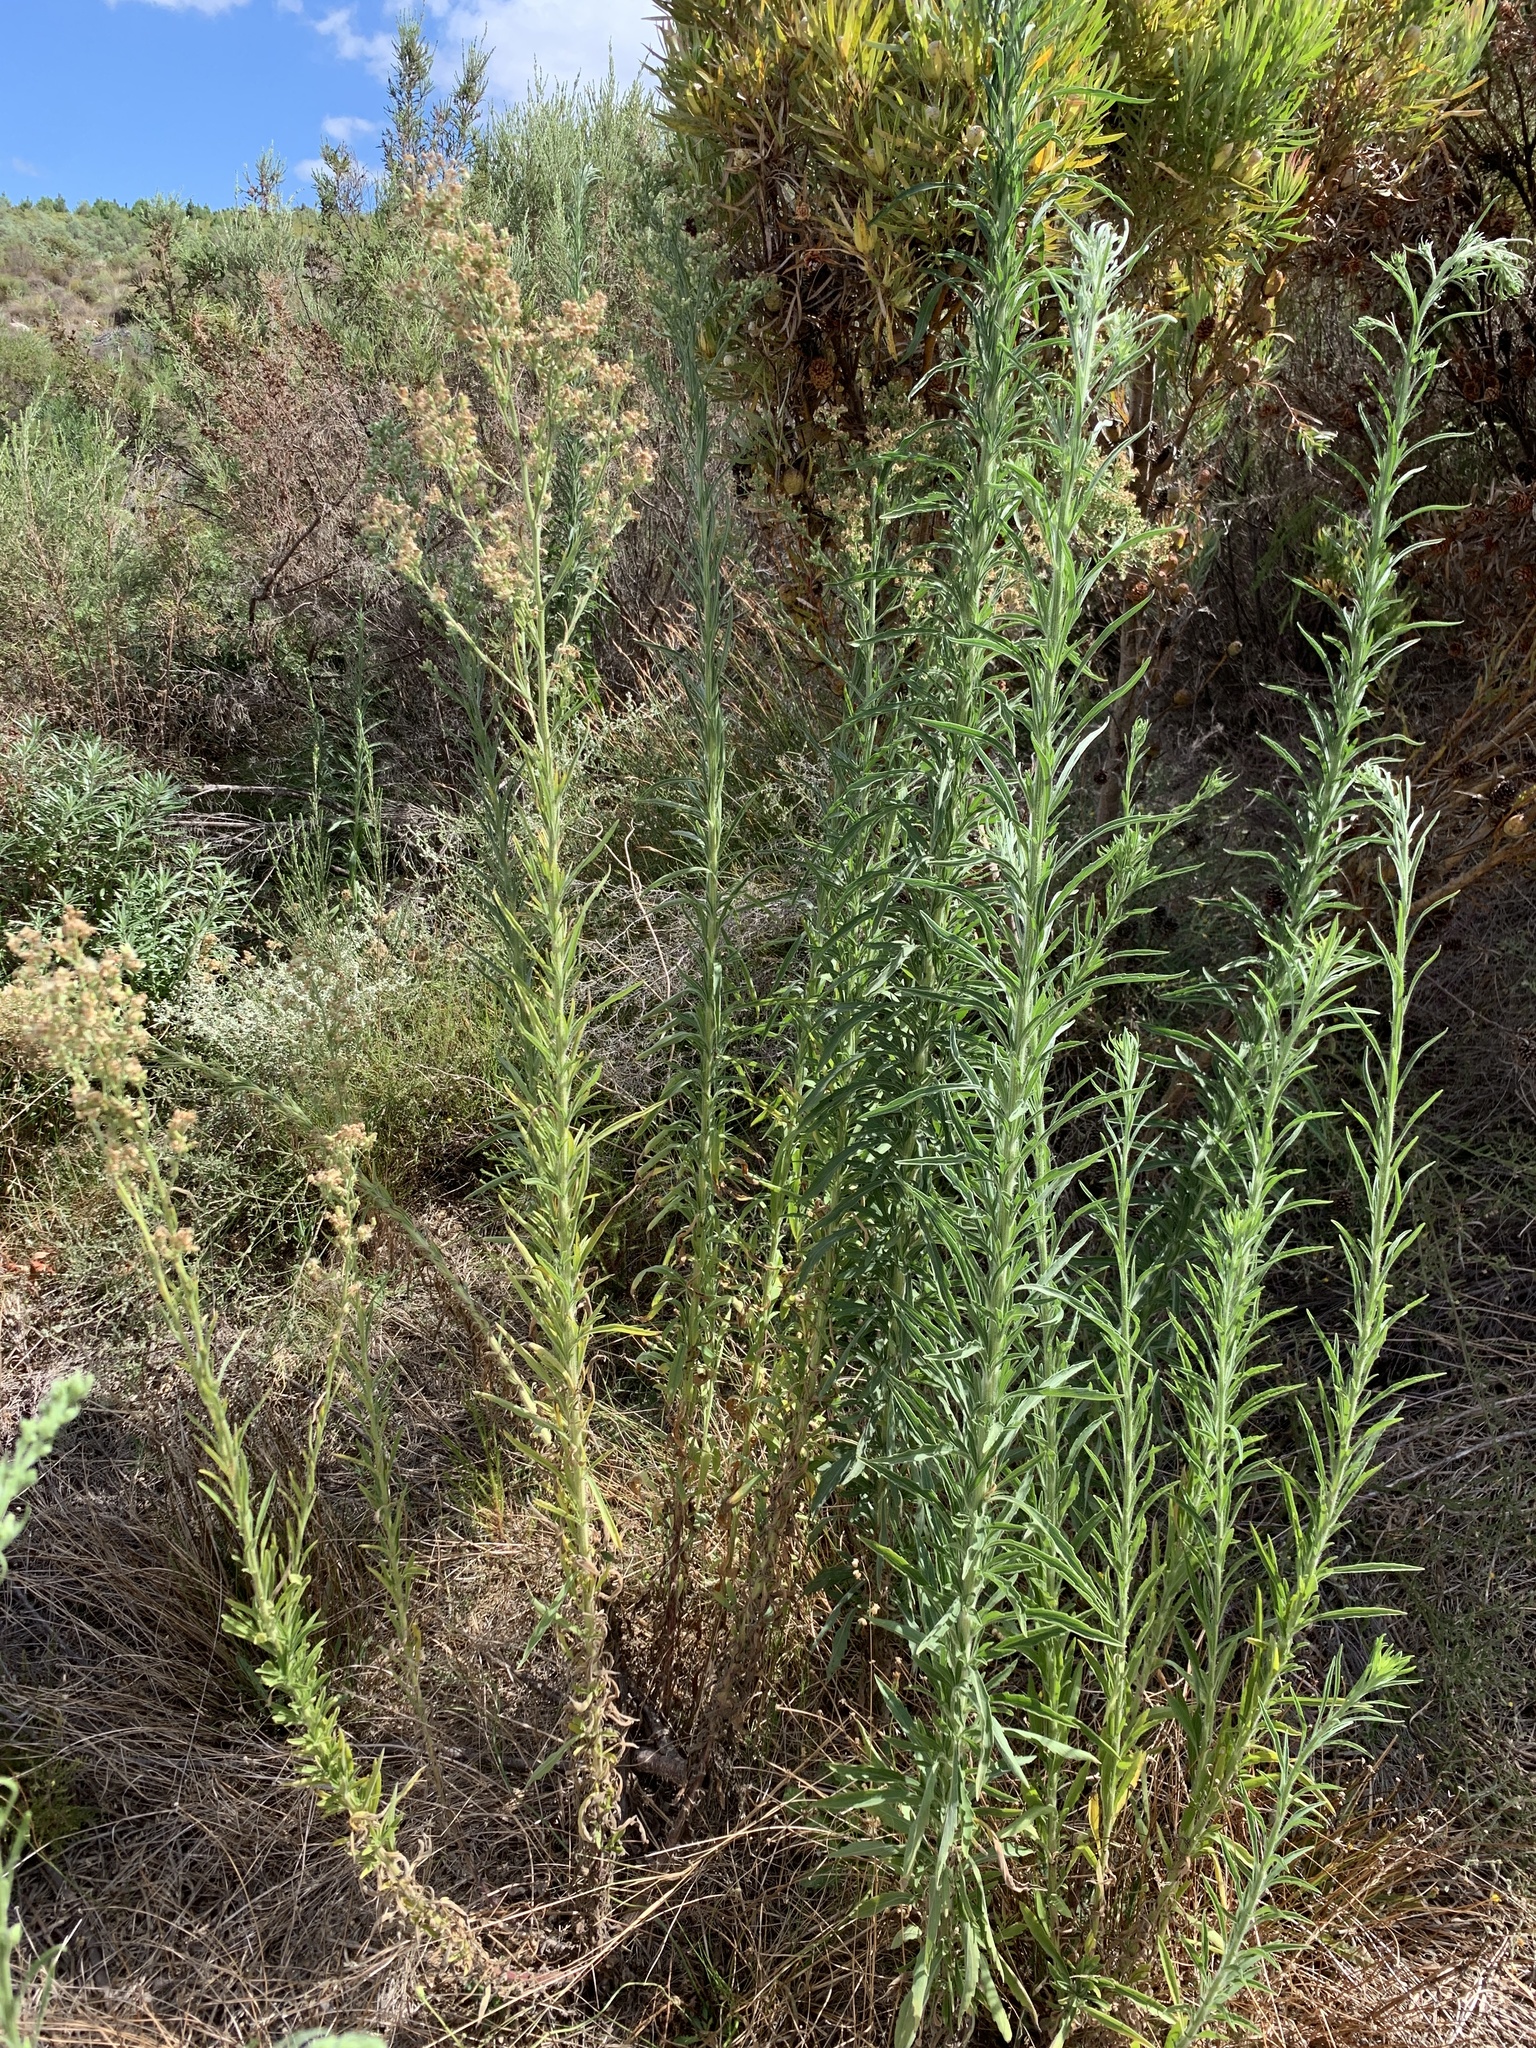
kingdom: Plantae
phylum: Tracheophyta
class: Magnoliopsida
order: Asterales
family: Asteraceae
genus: Erigeron
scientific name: Erigeron sumatrensis
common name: Daisy
